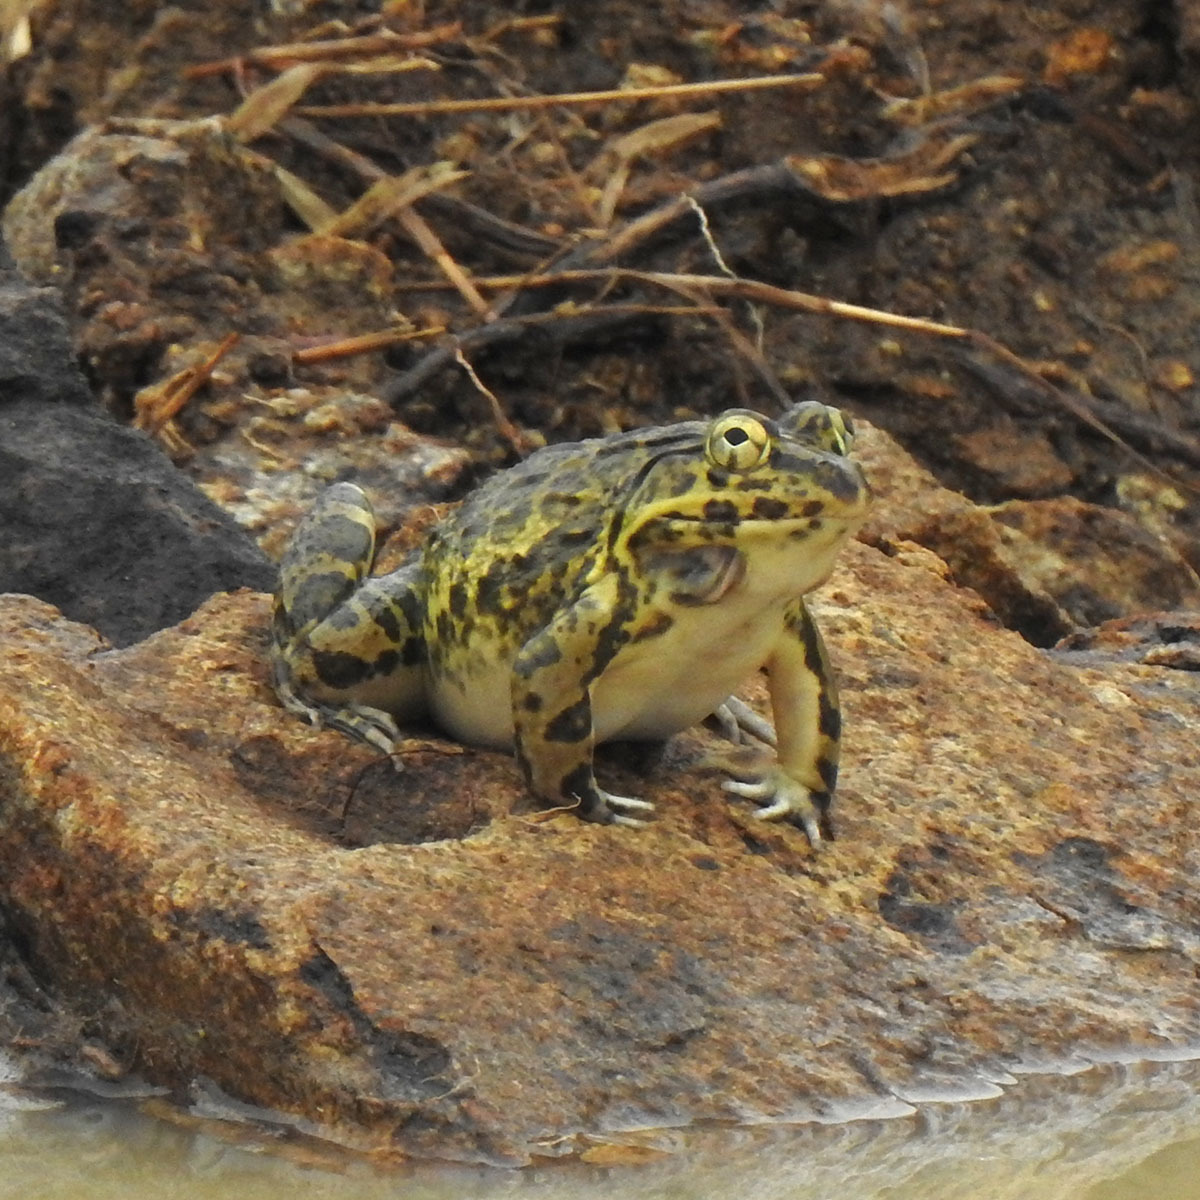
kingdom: Animalia
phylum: Chordata
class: Amphibia
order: Anura
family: Dicroglossidae
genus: Hoplobatrachus
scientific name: Hoplobatrachus crassus
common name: Jerdon's bullfrog
